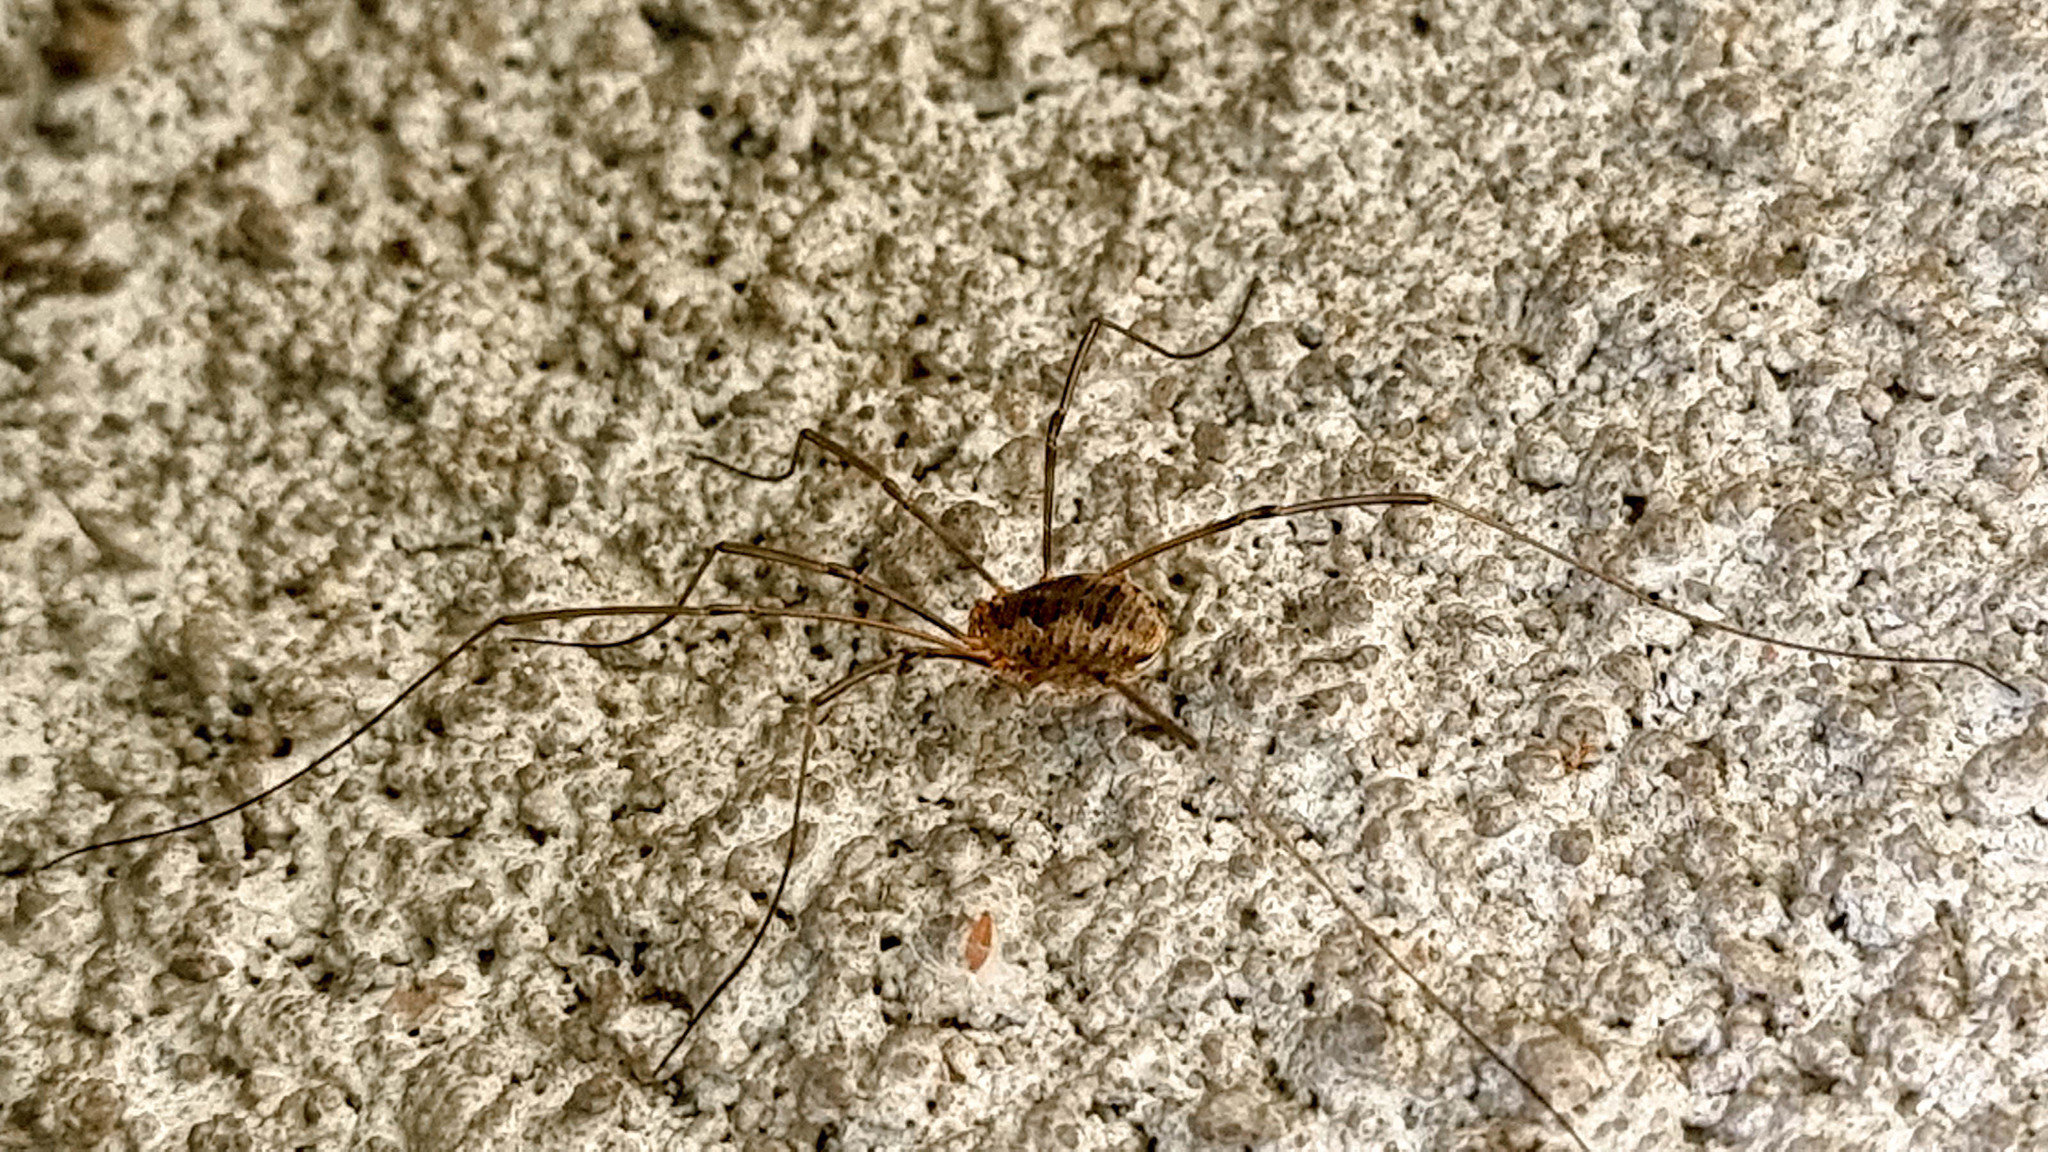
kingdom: Animalia
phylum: Arthropoda
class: Arachnida
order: Opiliones
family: Phalangiidae
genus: Phalangium
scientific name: Phalangium opilio
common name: Daddy longleg
